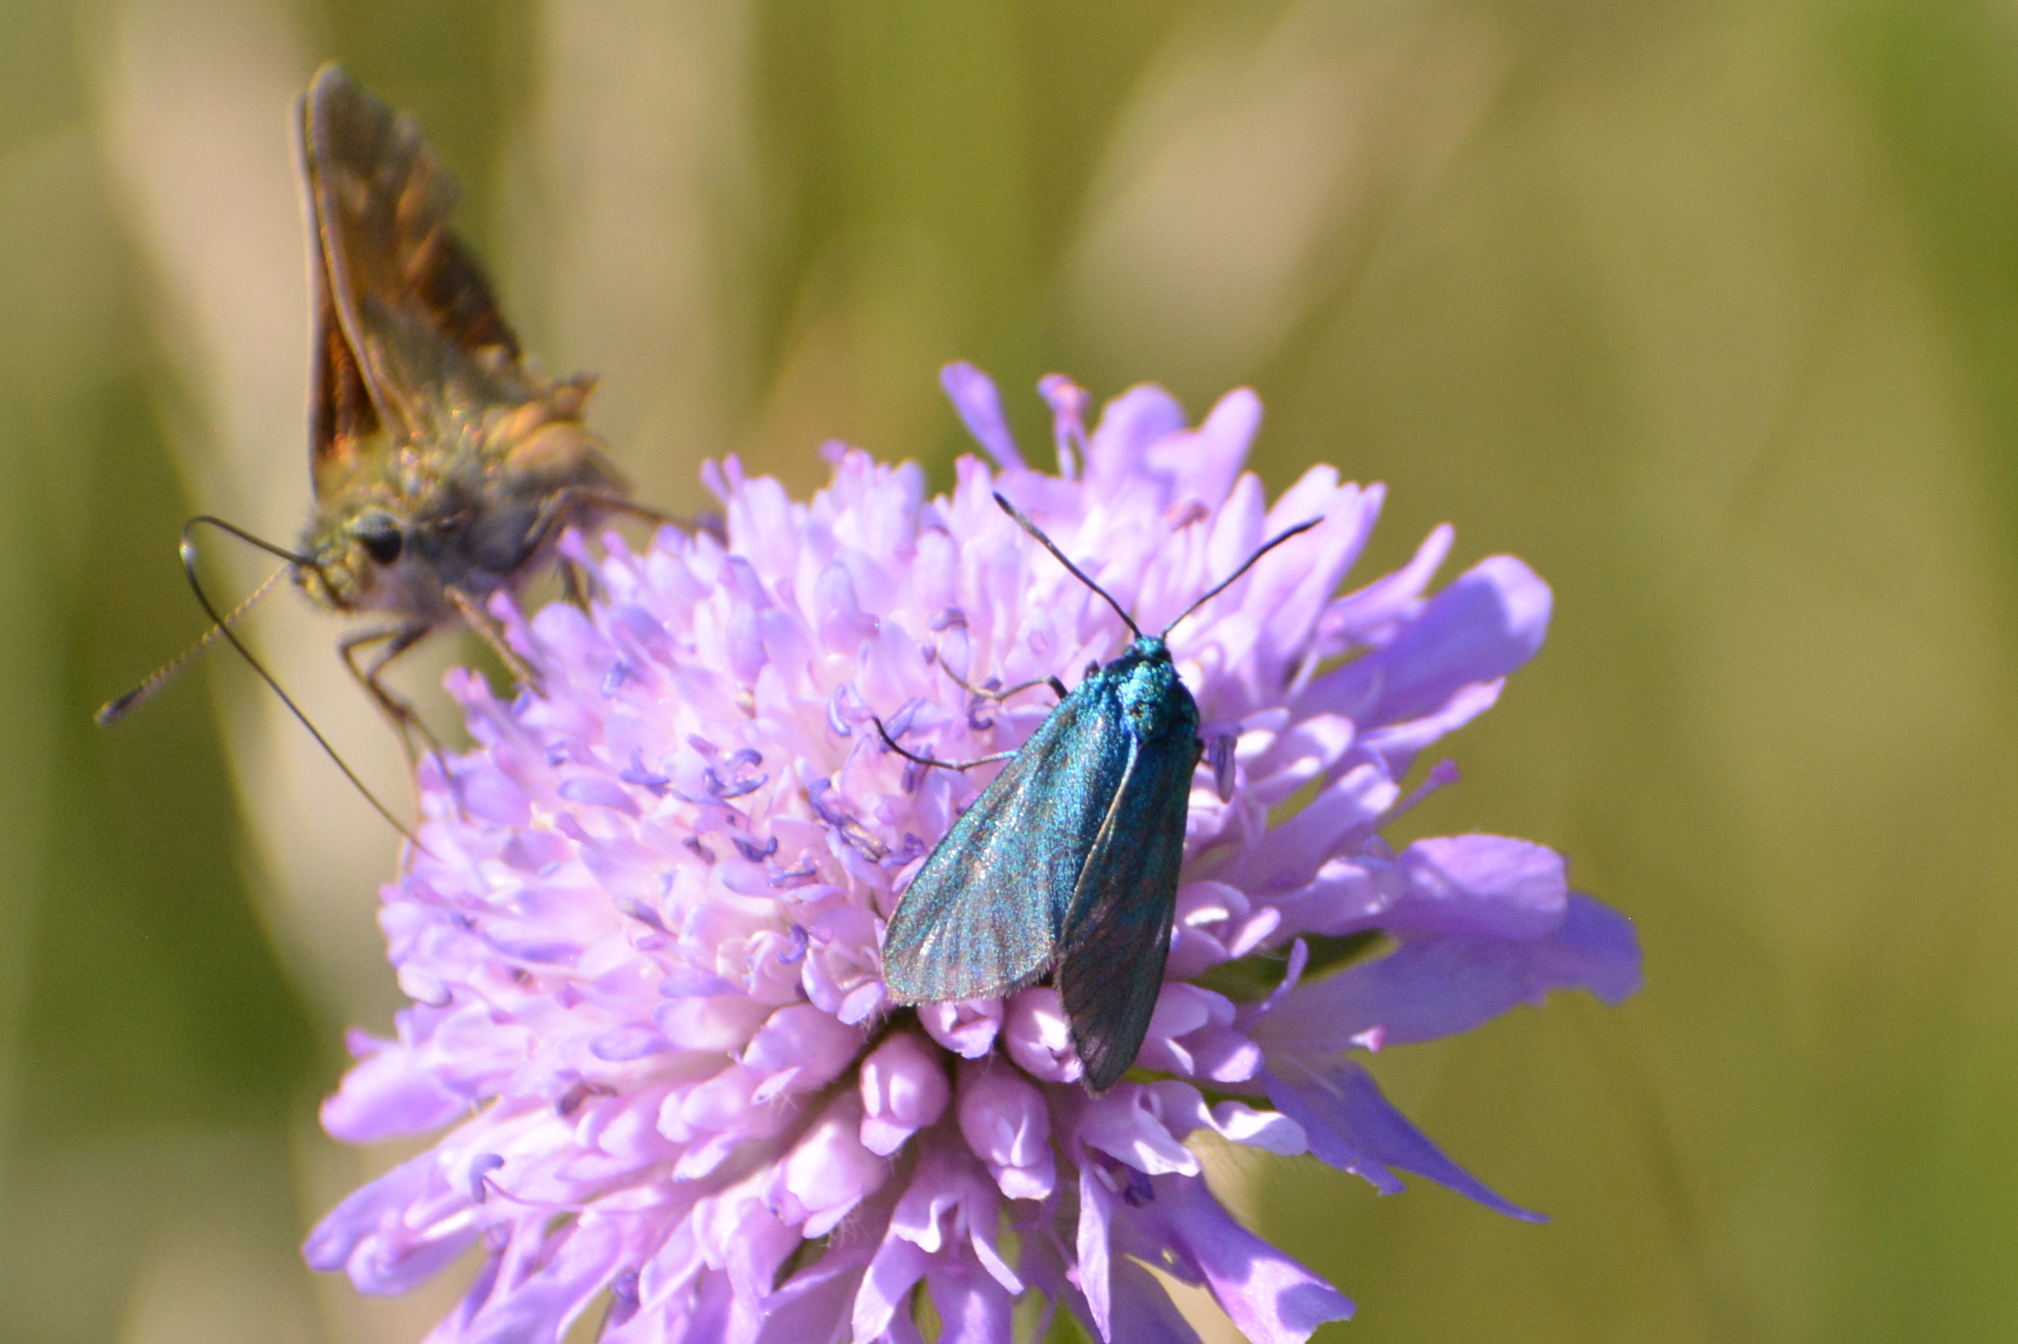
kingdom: Animalia
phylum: Arthropoda
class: Insecta
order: Lepidoptera
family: Zygaenidae
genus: Adscita
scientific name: Adscita statices
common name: Forester
